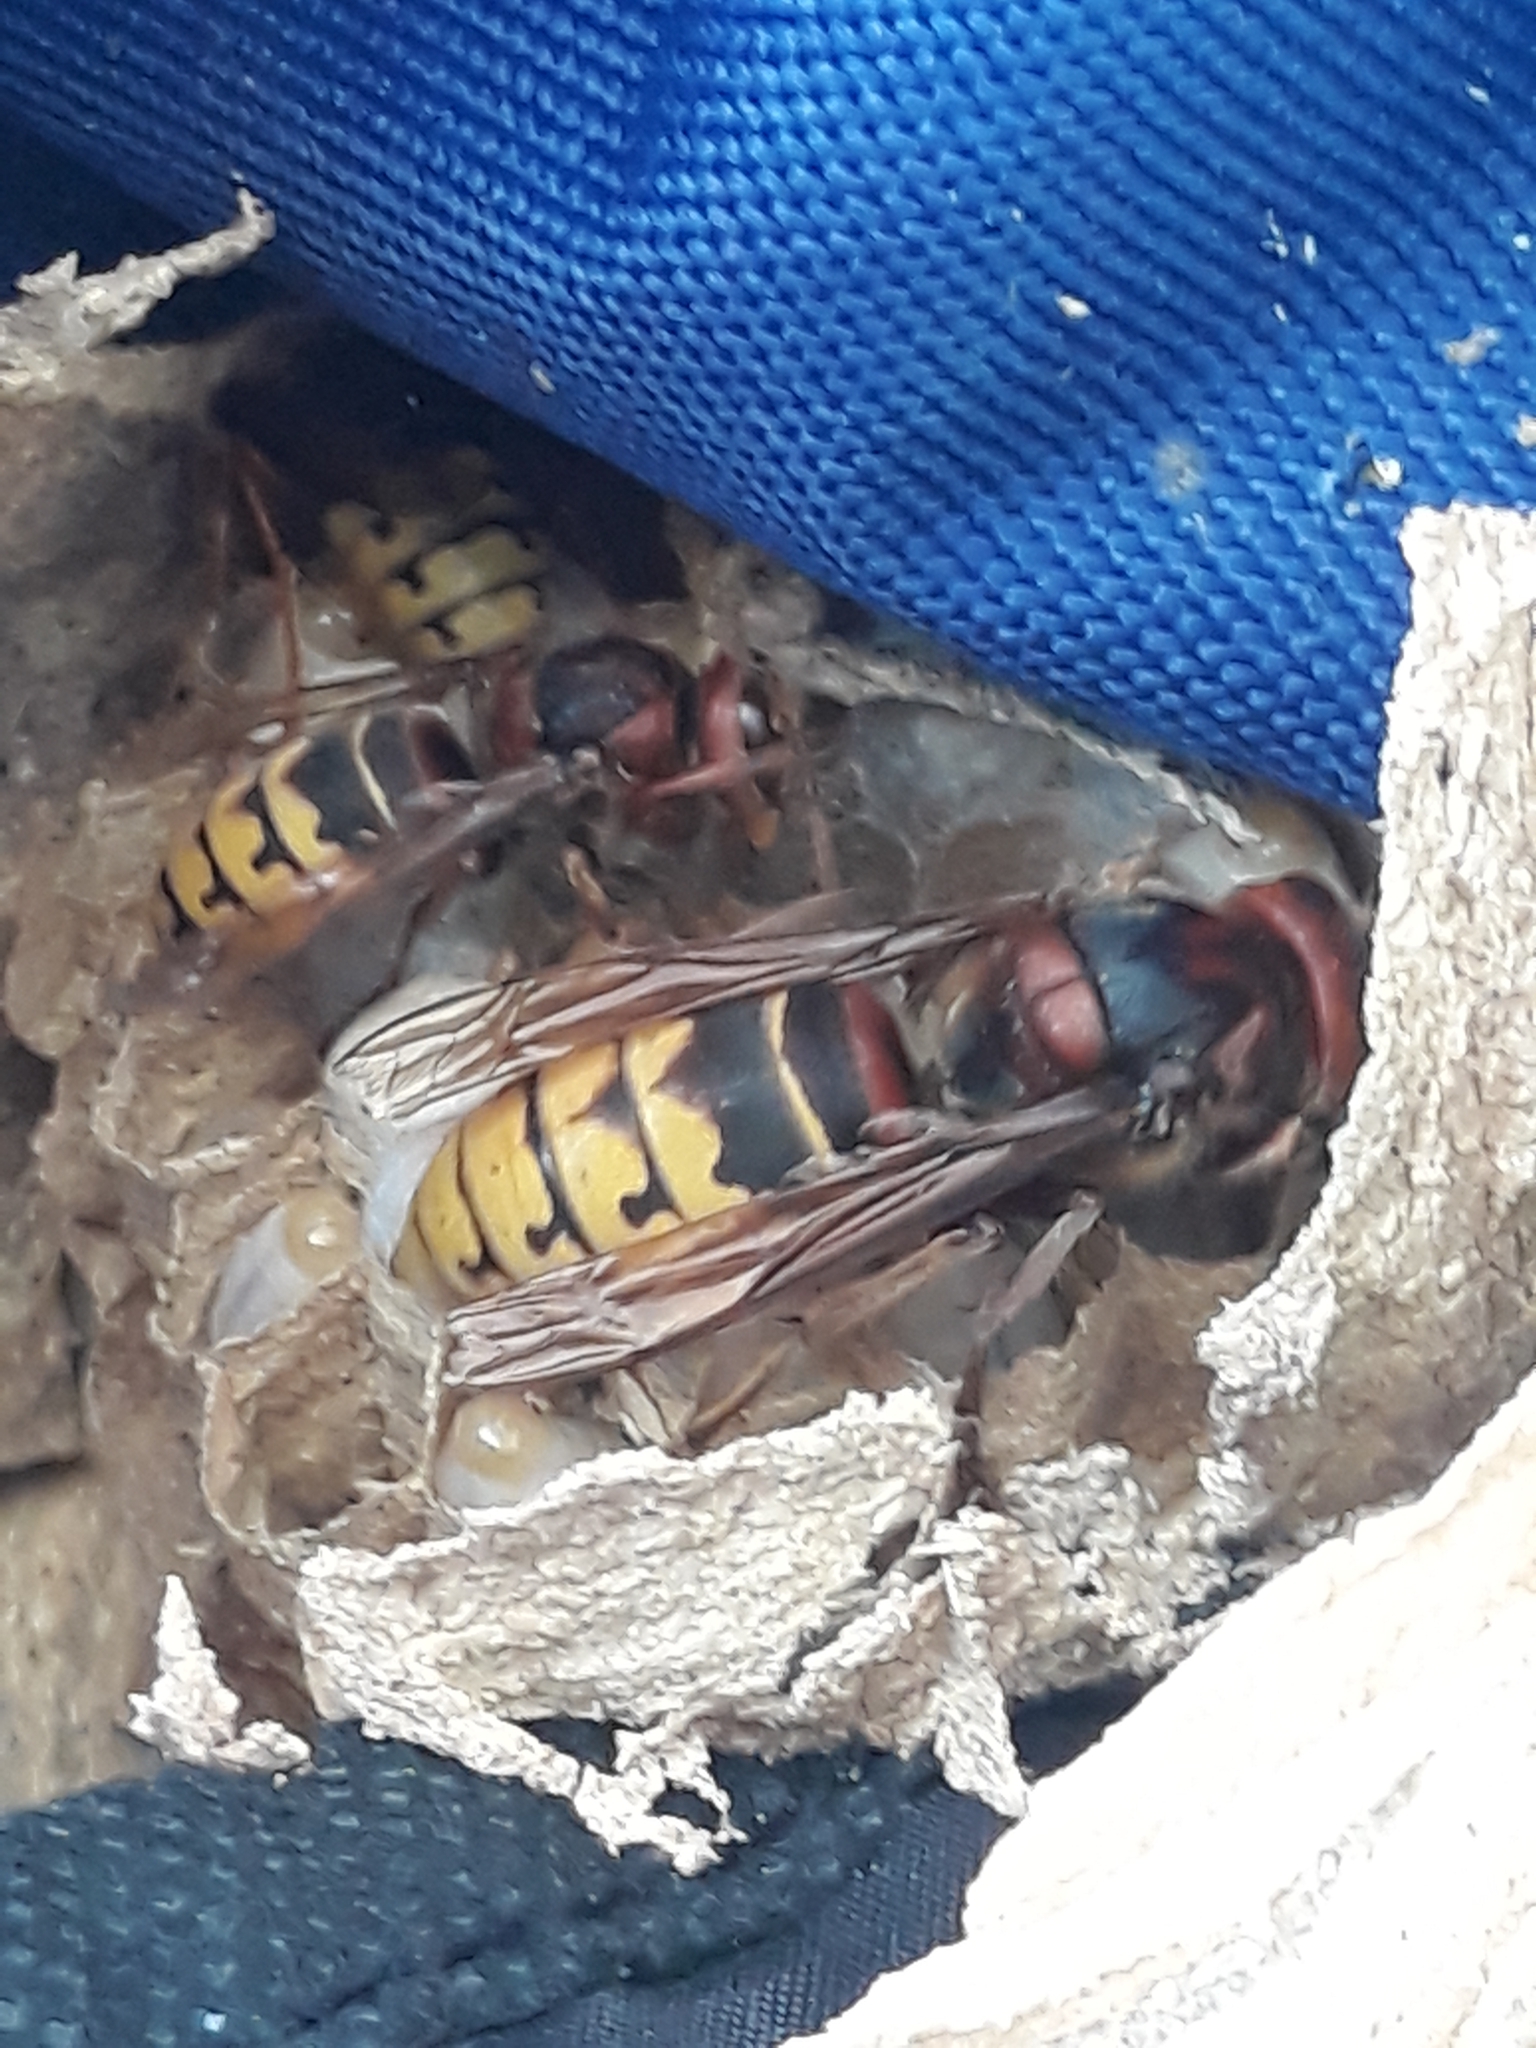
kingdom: Animalia
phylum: Arthropoda
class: Insecta
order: Hymenoptera
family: Vespidae
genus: Vespa
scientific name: Vespa crabro
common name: Hornet
